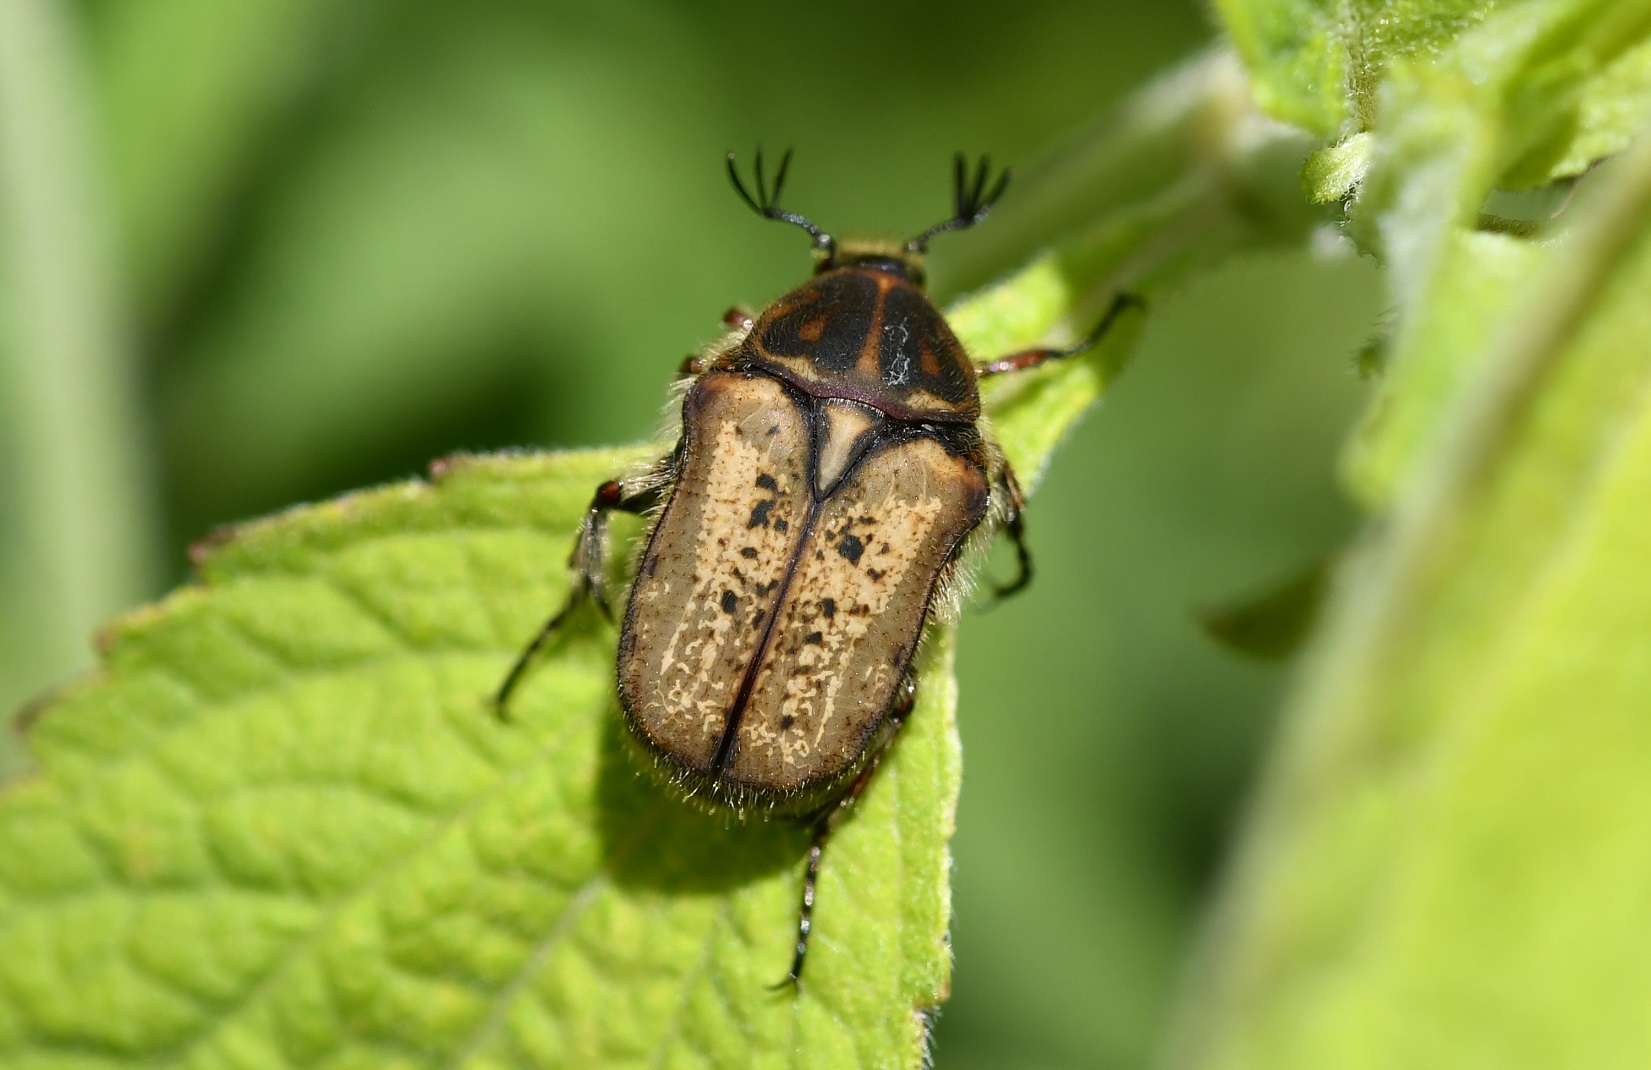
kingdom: Animalia
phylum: Arthropoda
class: Insecta
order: Coleoptera
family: Scarabaeidae
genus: Euphoria
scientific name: Euphoria lacandona
